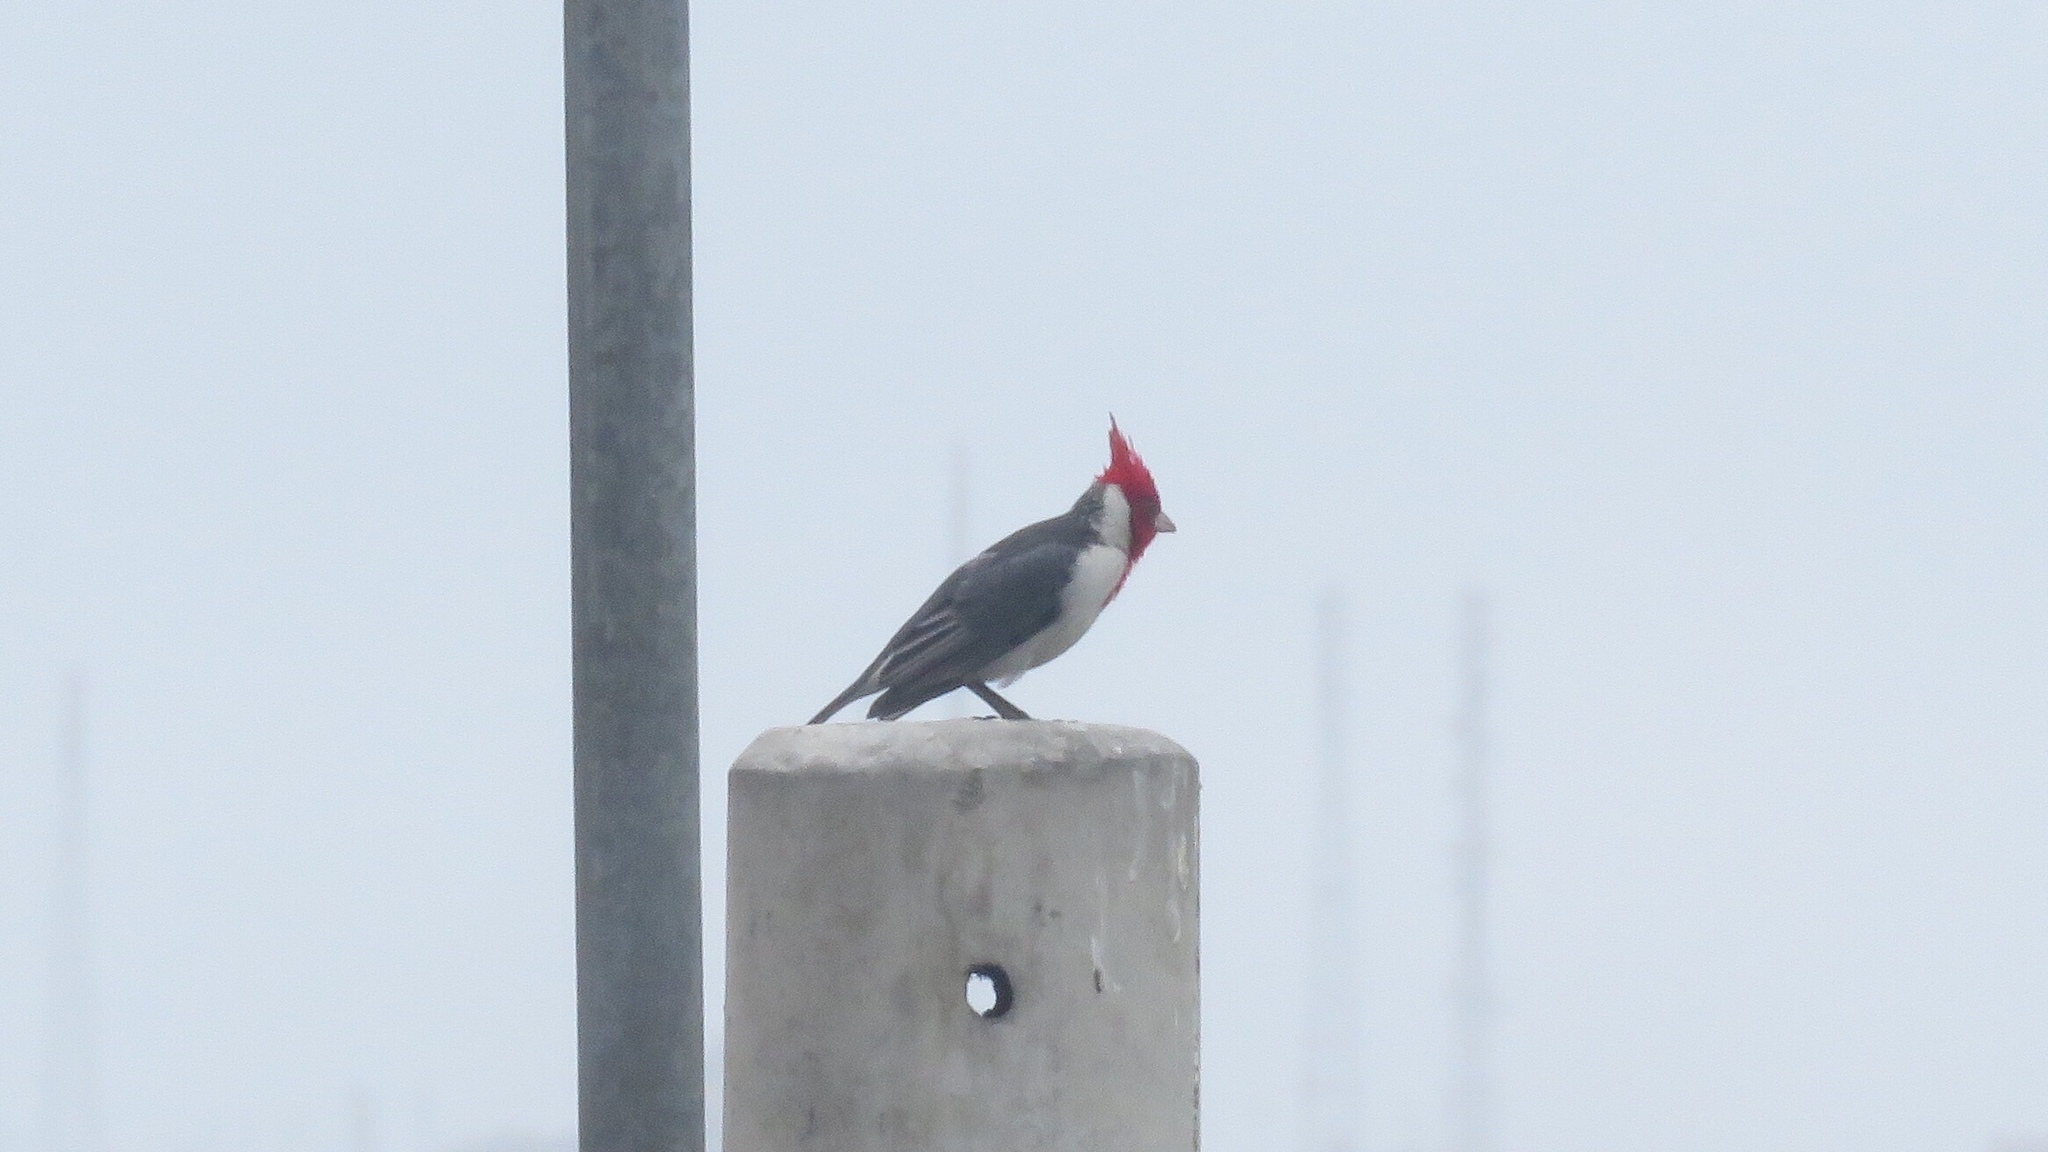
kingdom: Animalia
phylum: Chordata
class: Aves
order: Passeriformes
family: Thraupidae
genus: Paroaria
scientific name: Paroaria coronata
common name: Red-crested cardinal
